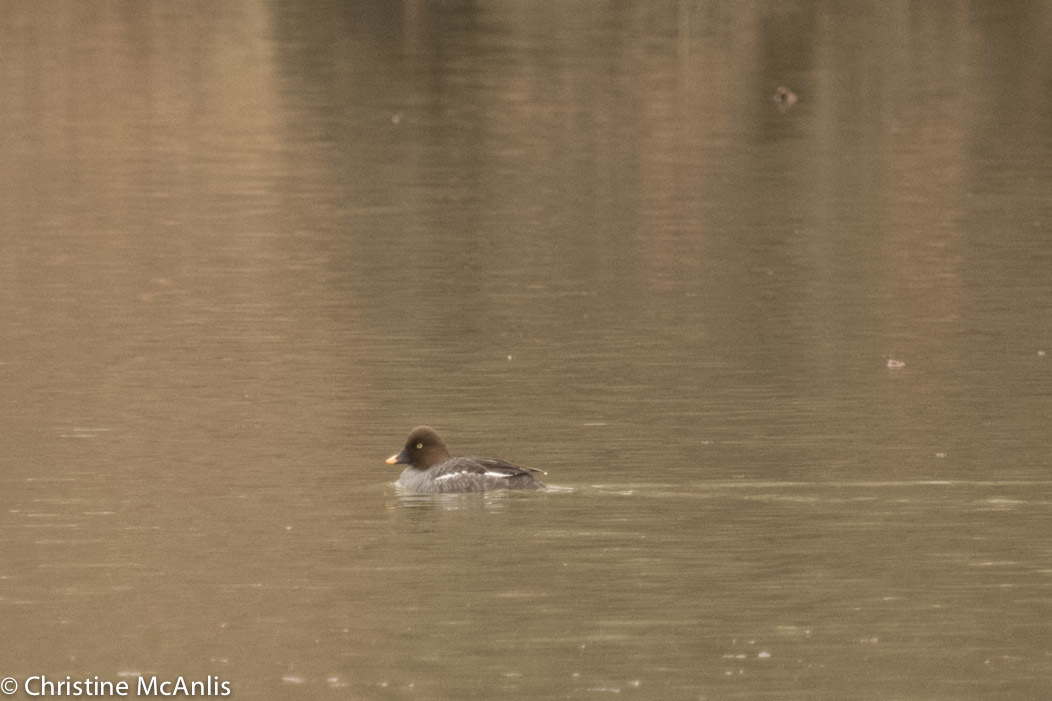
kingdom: Animalia
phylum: Chordata
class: Aves
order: Anseriformes
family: Anatidae
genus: Bucephala
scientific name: Bucephala clangula
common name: Common goldeneye
